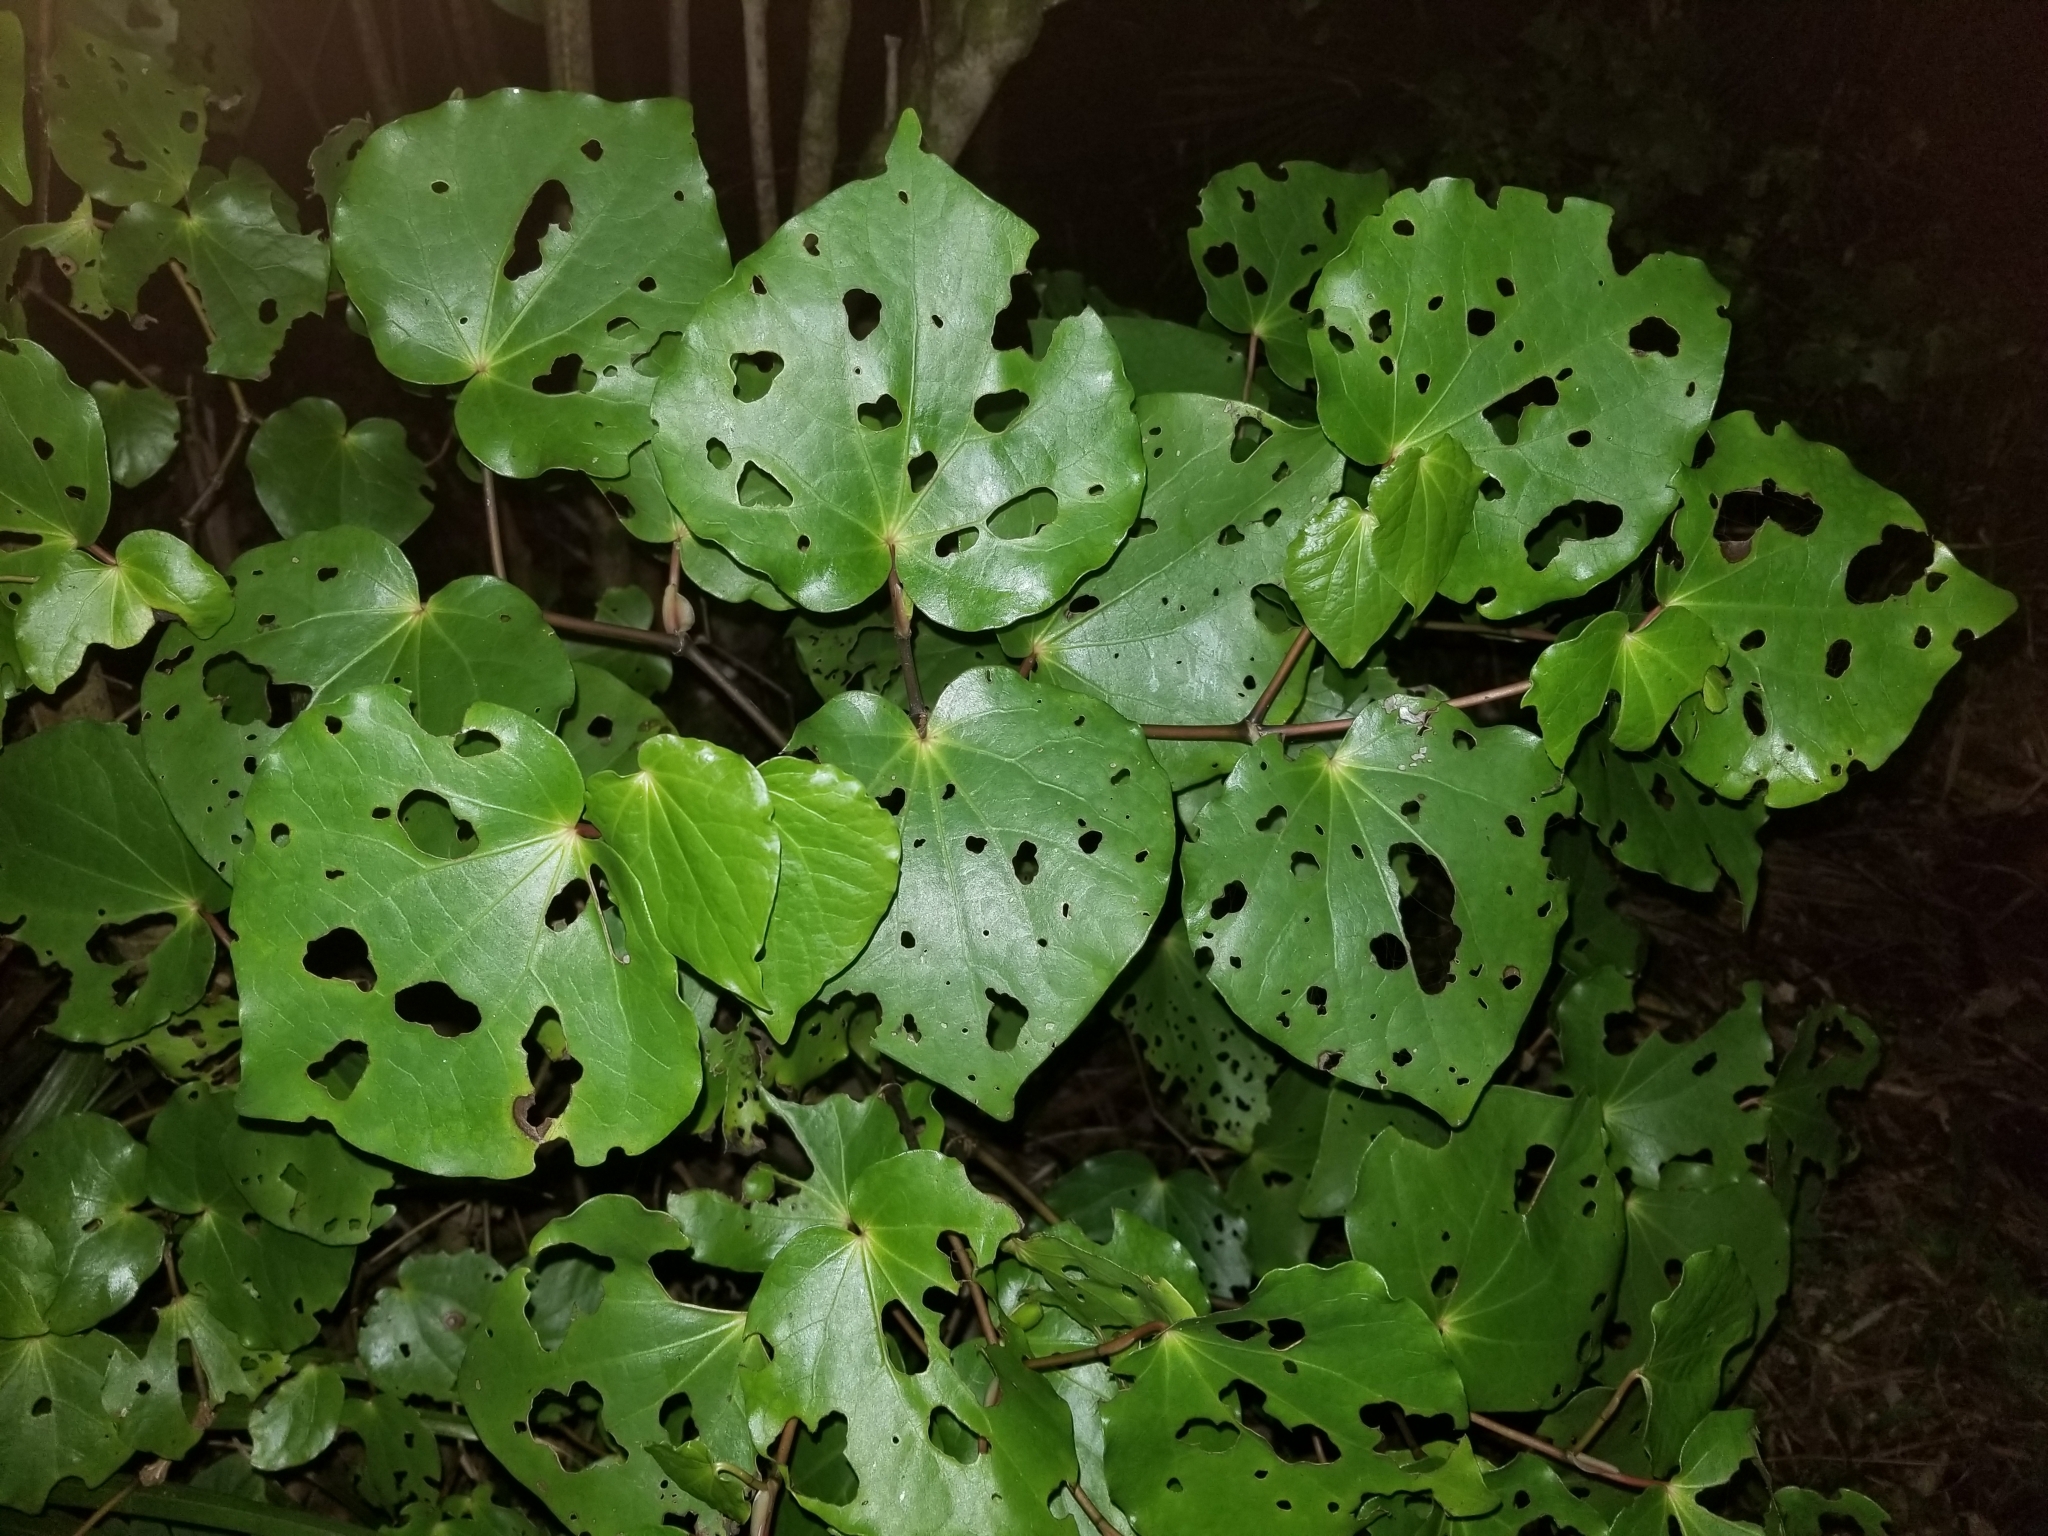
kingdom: Plantae
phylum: Tracheophyta
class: Magnoliopsida
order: Piperales
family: Piperaceae
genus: Macropiper
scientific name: Macropiper excelsum
